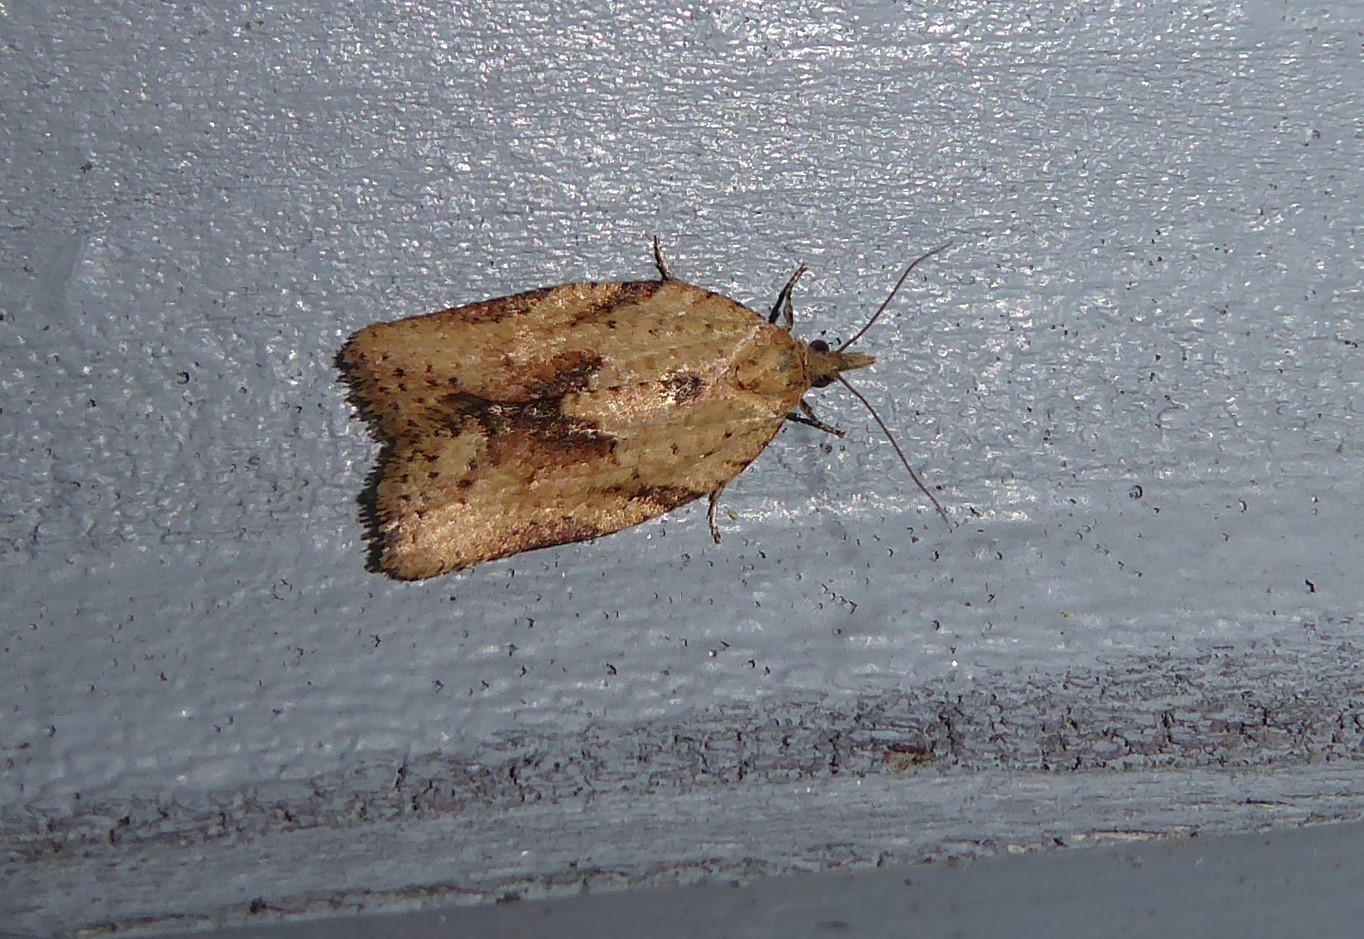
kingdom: Animalia
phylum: Arthropoda
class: Insecta
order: Lepidoptera
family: Tortricidae
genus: Epiphyas
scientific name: Epiphyas postvittana
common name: Light brown apple moth
